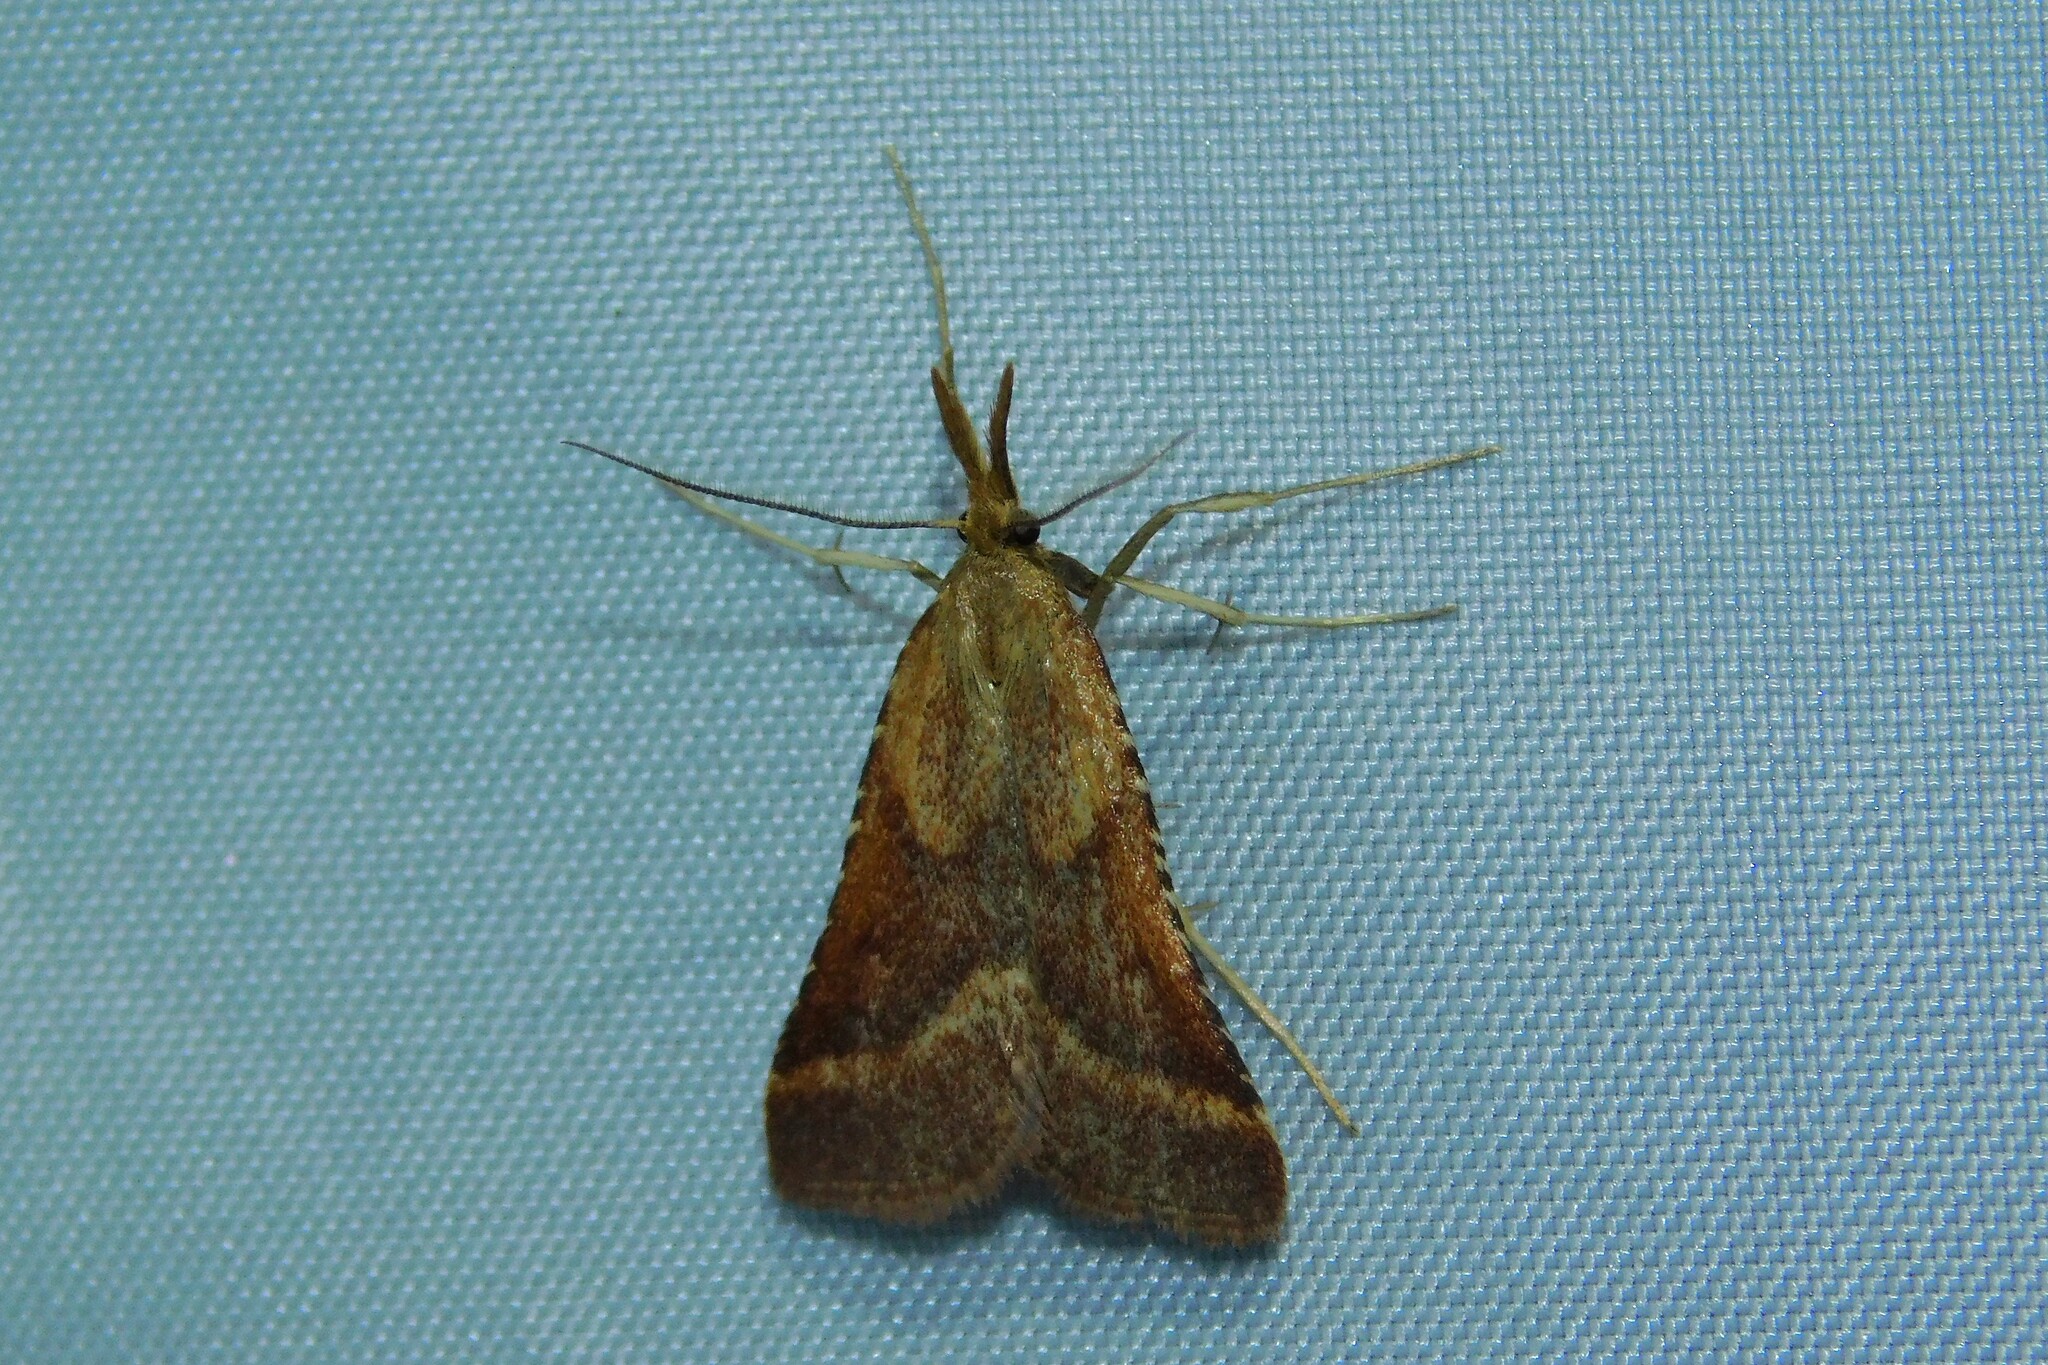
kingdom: Animalia
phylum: Arthropoda
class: Insecta
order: Lepidoptera
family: Pyralidae
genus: Synaphe
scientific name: Synaphe punctalis
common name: Long-legged tabby
